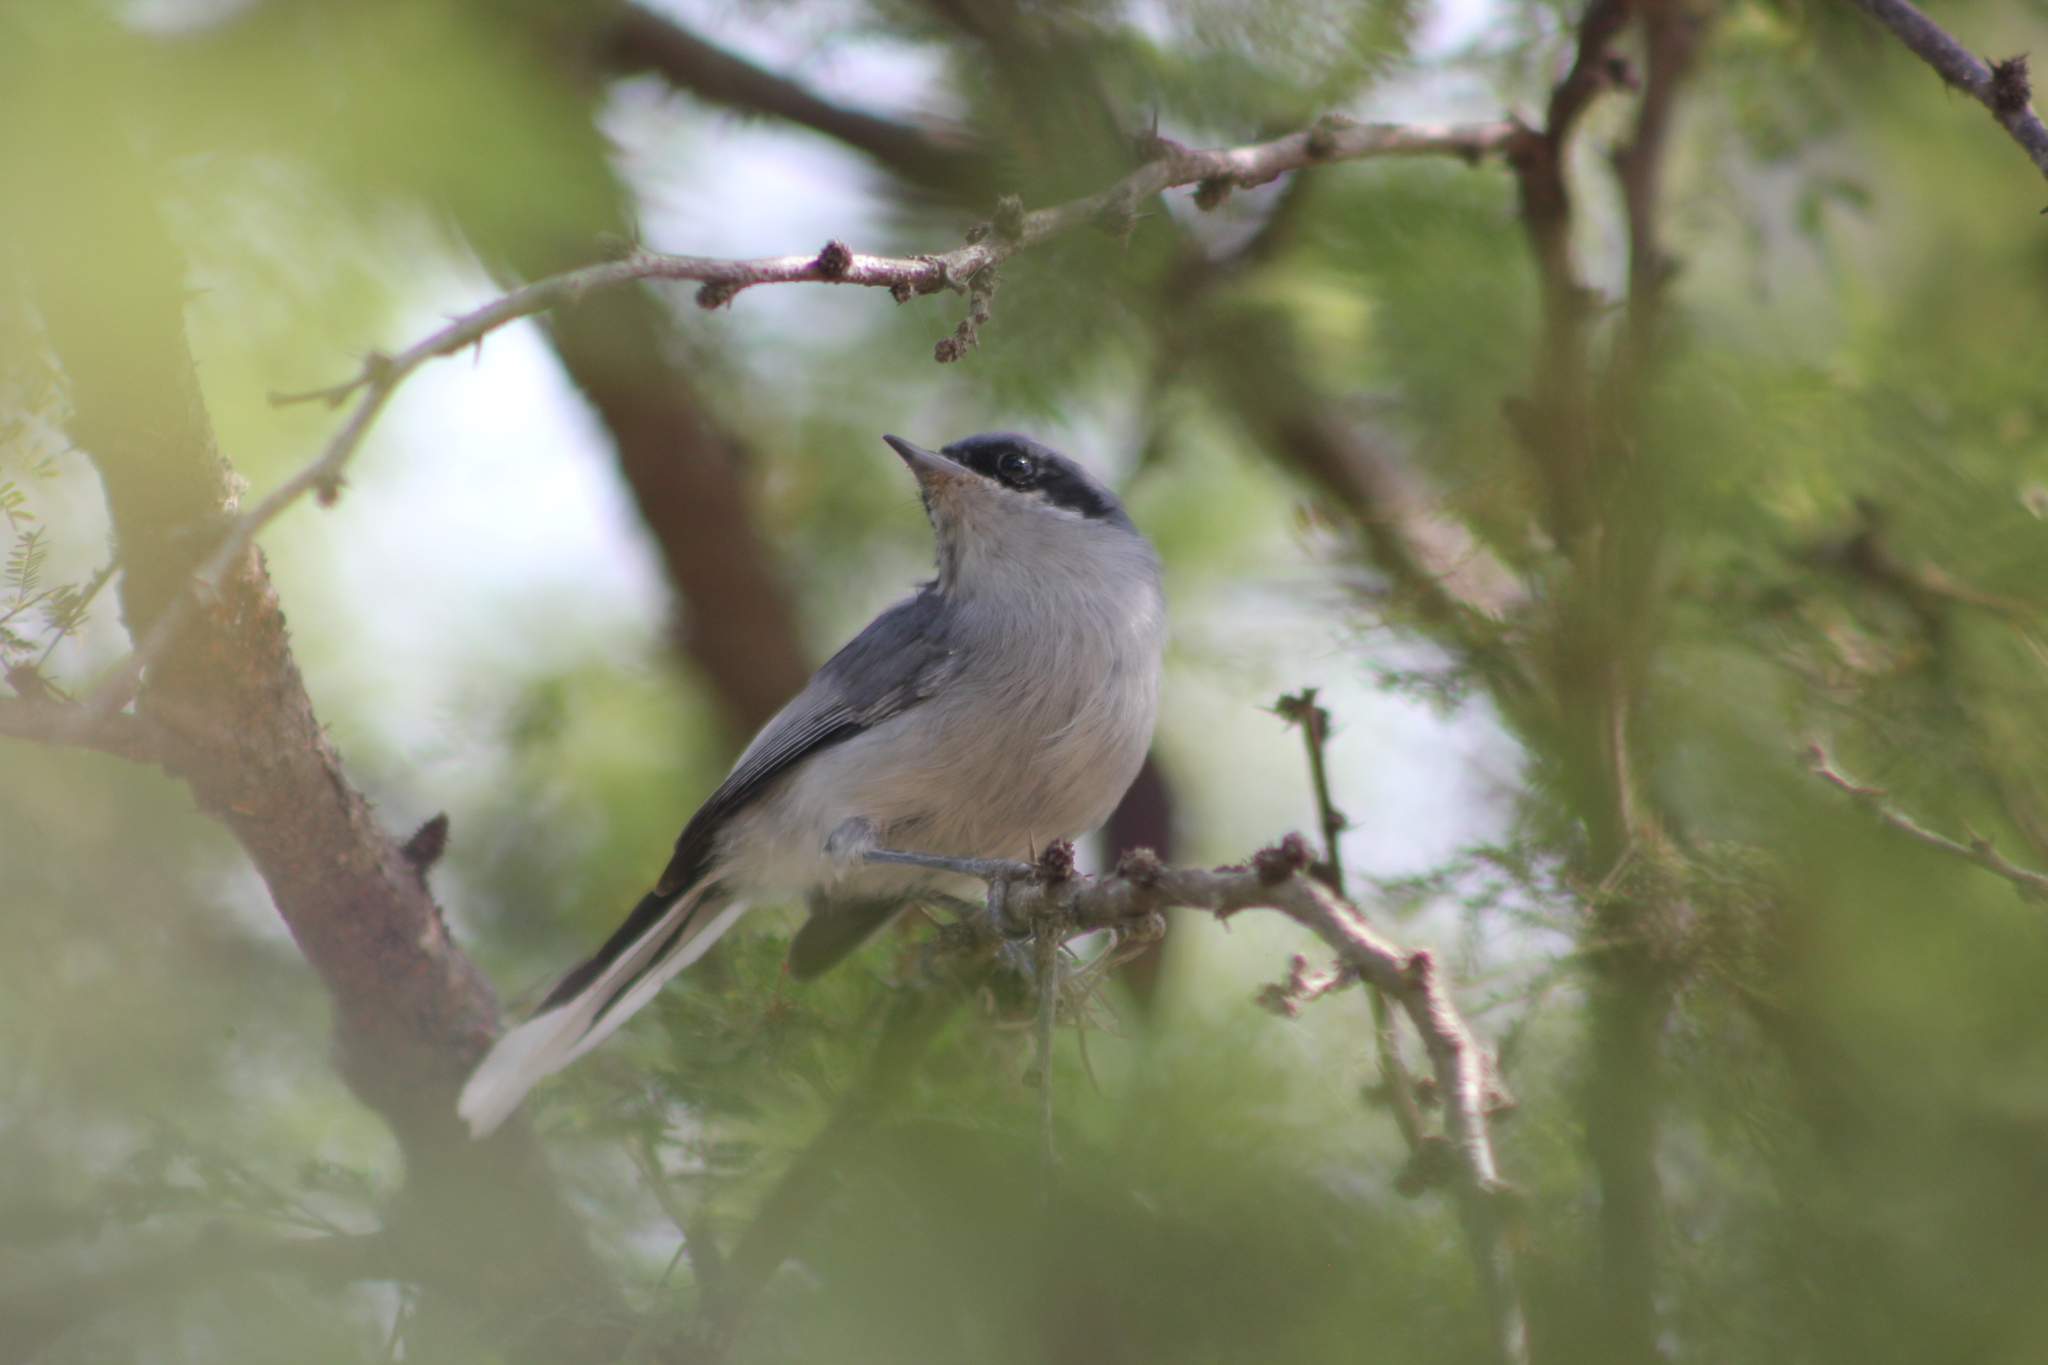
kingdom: Animalia
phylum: Chordata
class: Aves
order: Passeriformes
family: Polioptilidae
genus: Polioptila
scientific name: Polioptila dumicola
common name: Masked gnatcatcher
